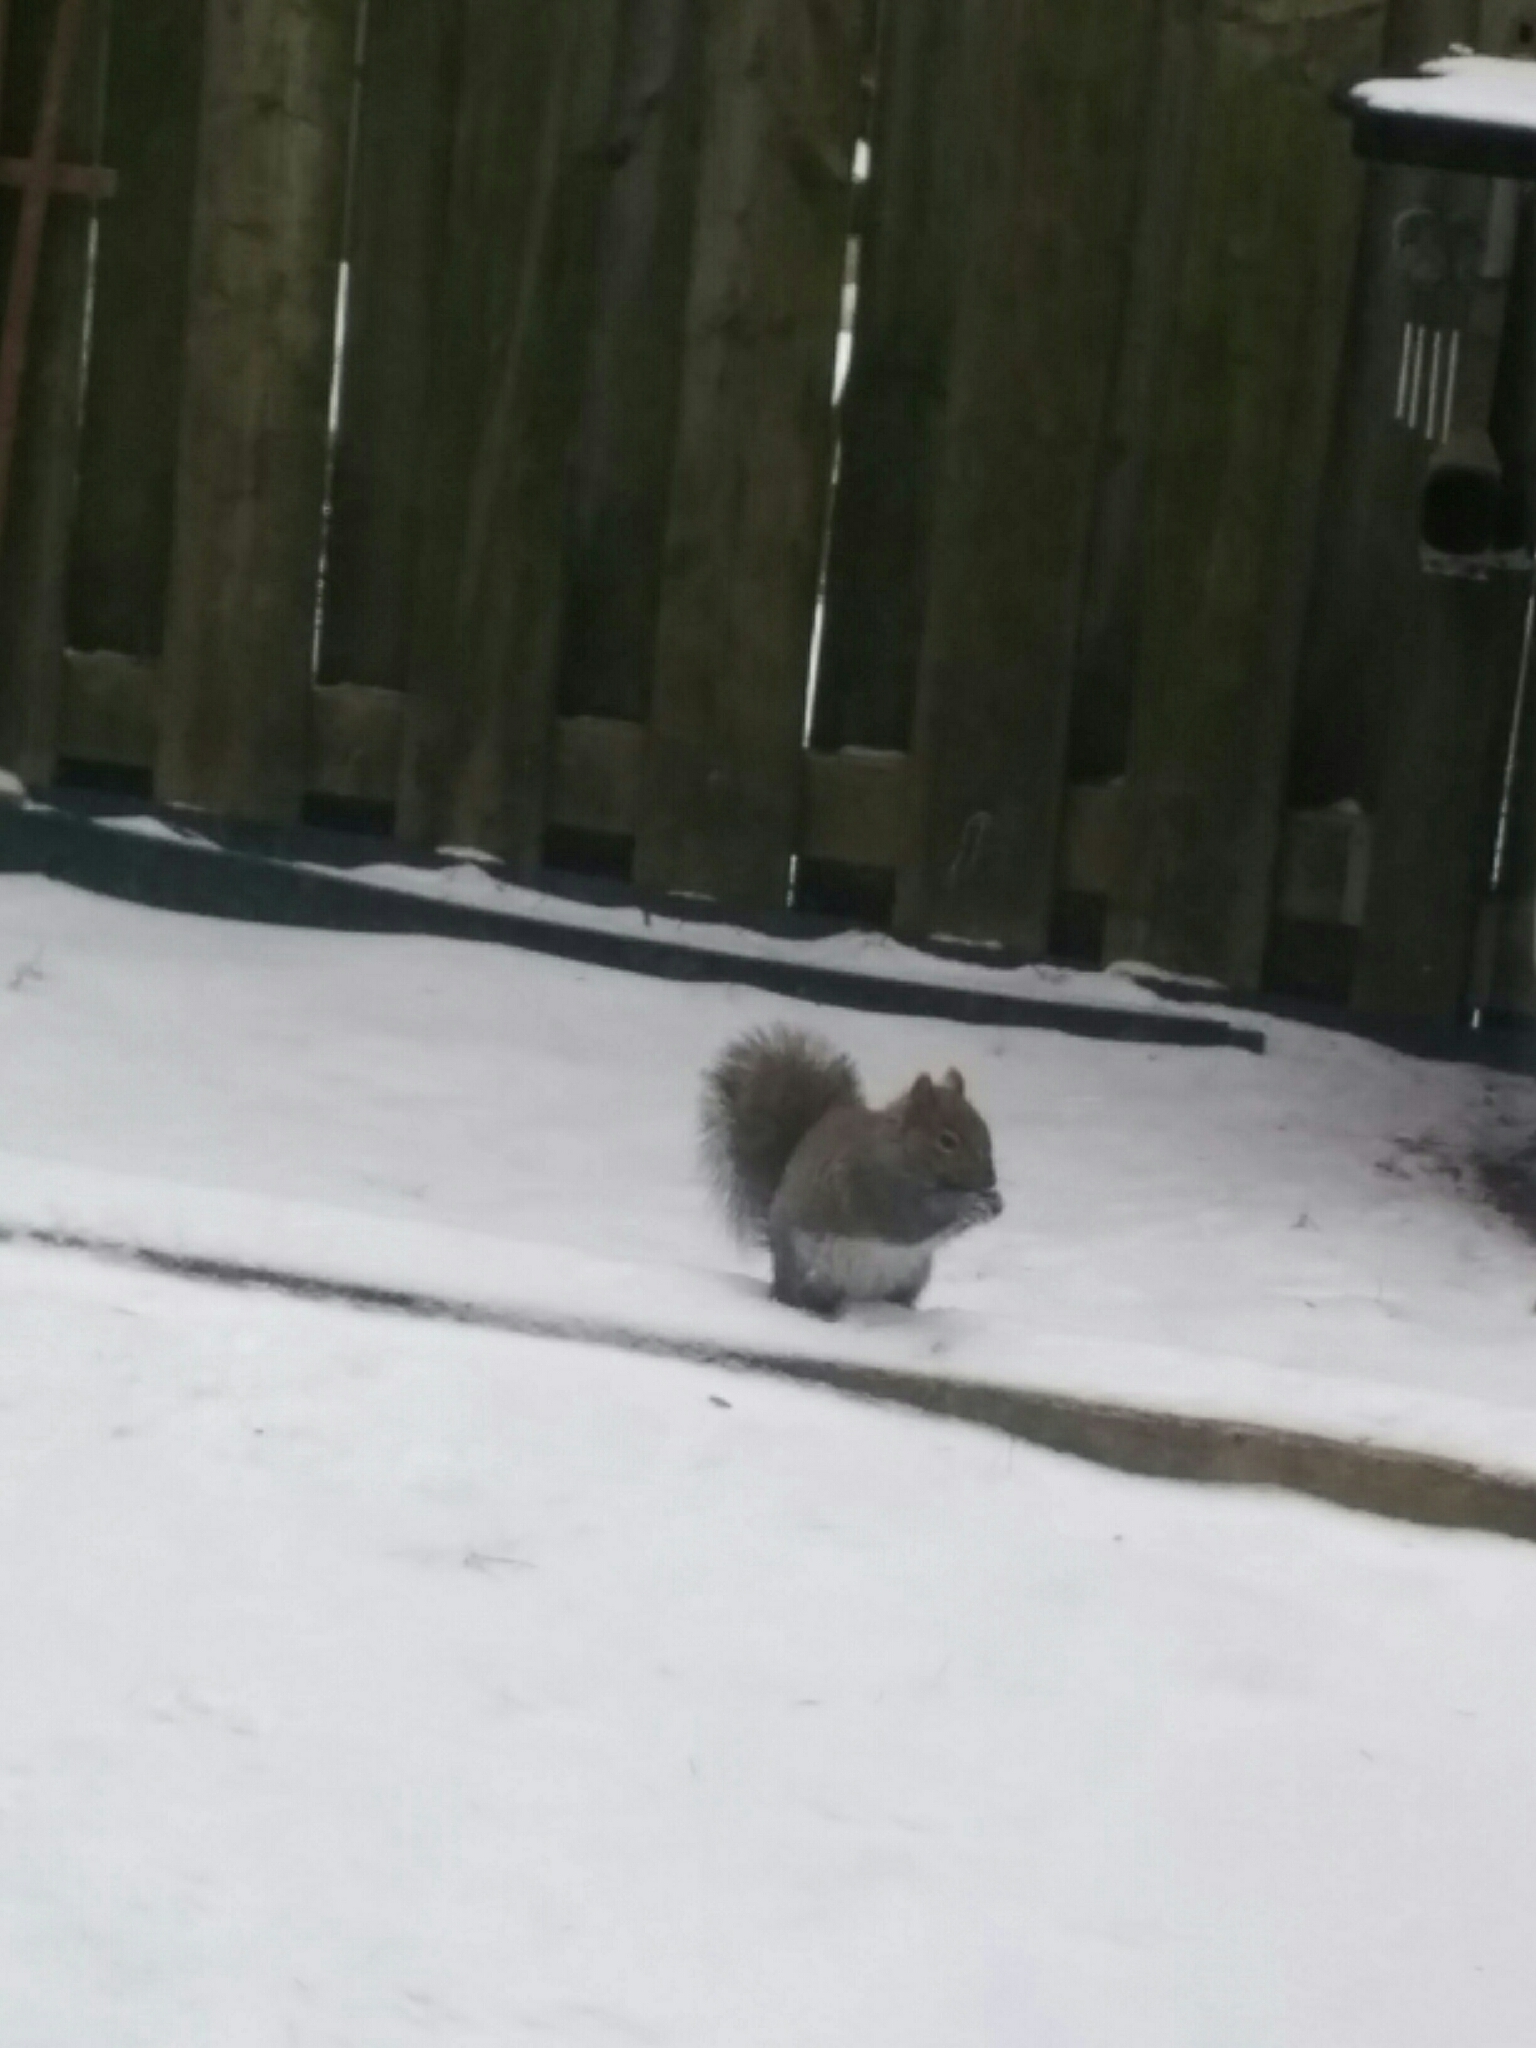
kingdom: Animalia
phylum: Chordata
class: Mammalia
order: Rodentia
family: Sciuridae
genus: Sciurus
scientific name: Sciurus carolinensis
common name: Eastern gray squirrel
